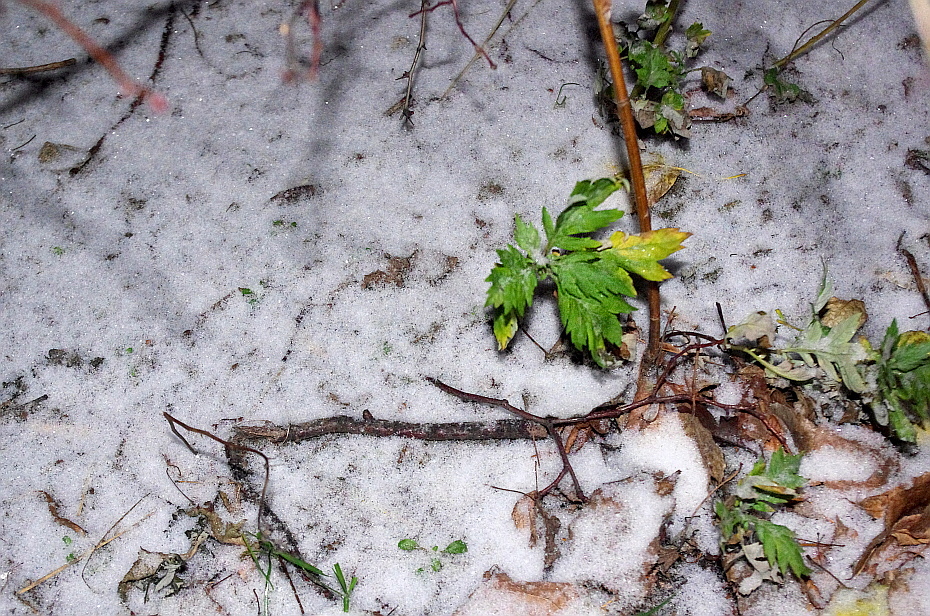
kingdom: Plantae
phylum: Tracheophyta
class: Magnoliopsida
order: Asterales
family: Asteraceae
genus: Artemisia
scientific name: Artemisia vulgaris
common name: Mugwort
